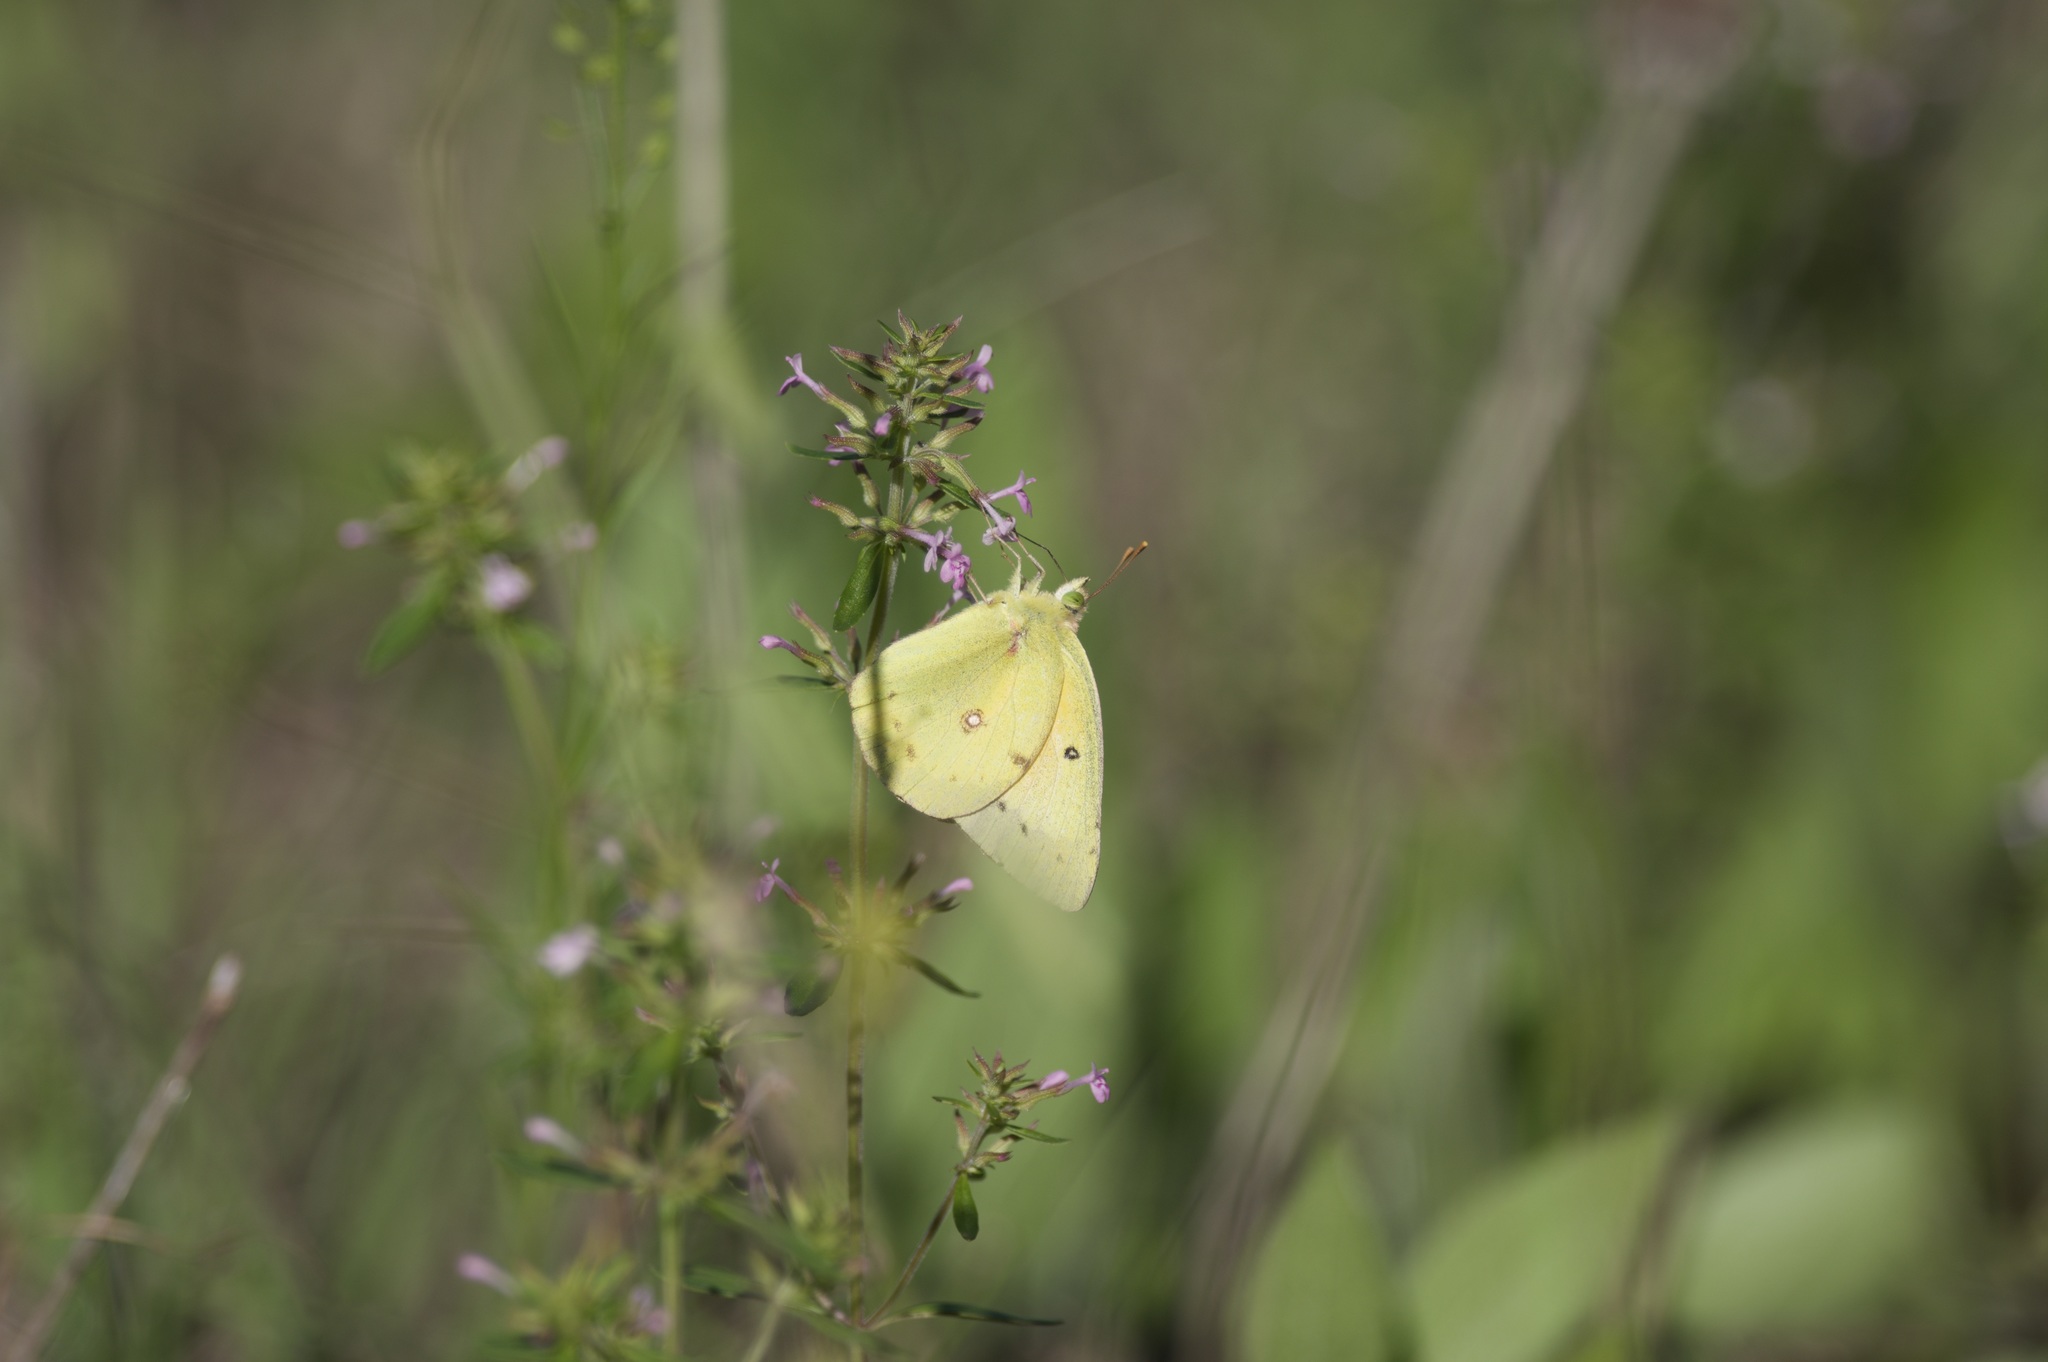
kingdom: Animalia
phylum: Arthropoda
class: Insecta
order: Lepidoptera
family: Pieridae
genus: Colias
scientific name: Colias eurytheme
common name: Alfalfa butterfly
